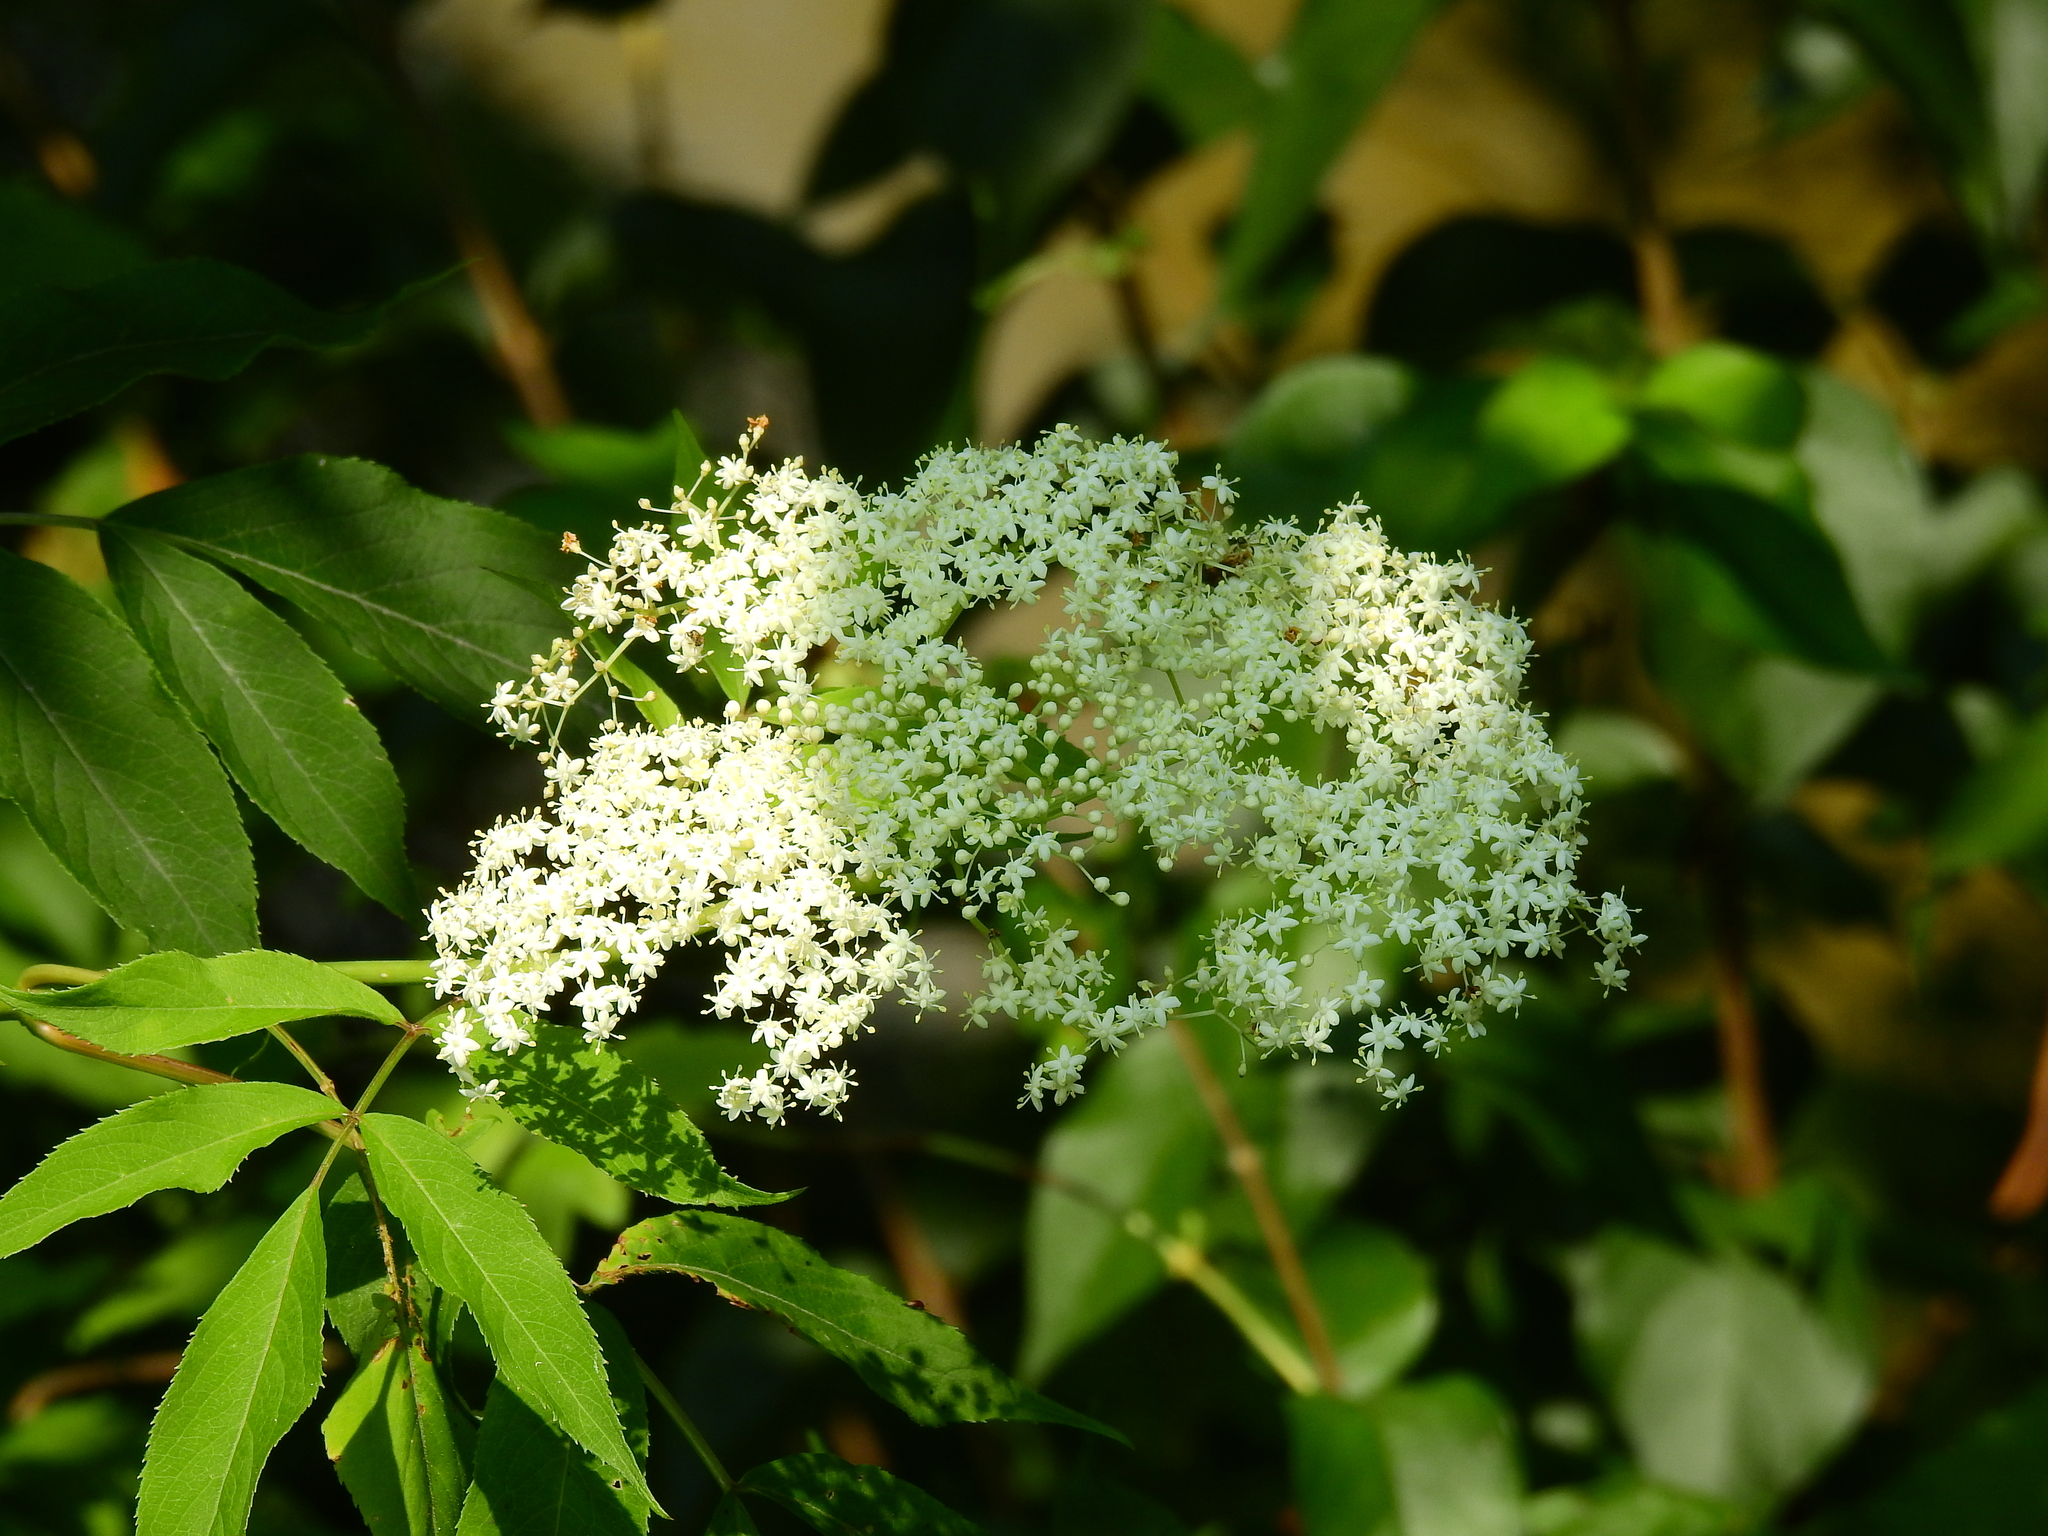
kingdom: Plantae
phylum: Tracheophyta
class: Magnoliopsida
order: Dipsacales
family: Viburnaceae
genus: Sambucus
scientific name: Sambucus canadensis
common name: American elder
